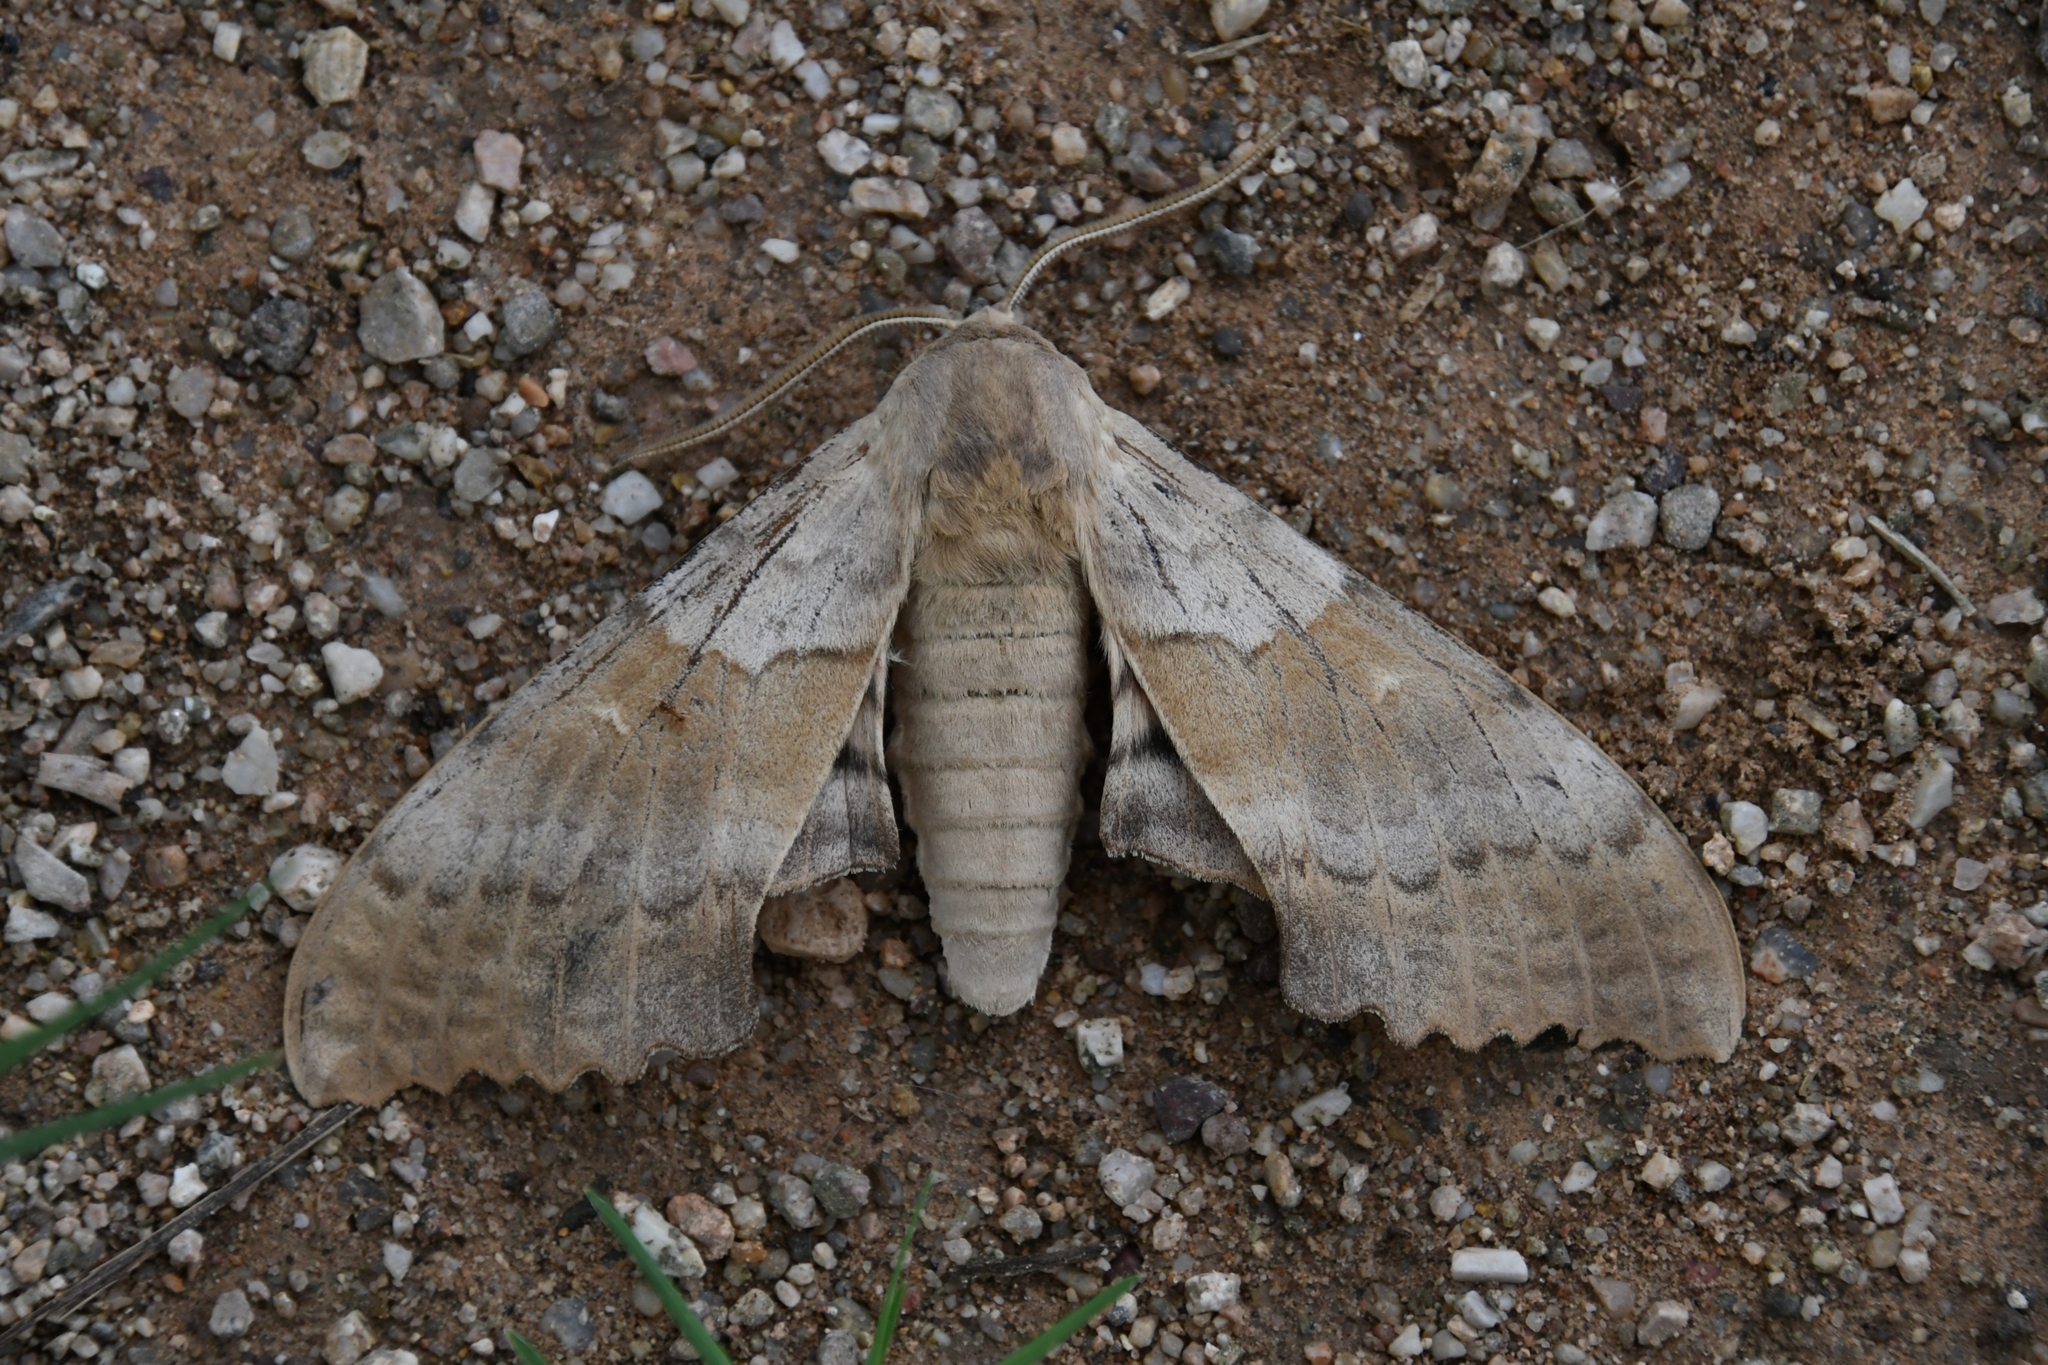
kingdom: Animalia
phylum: Arthropoda
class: Insecta
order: Lepidoptera
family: Sphingidae
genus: Pachysphinx
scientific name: Pachysphinx occidentalis
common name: Western poplar sphinx
